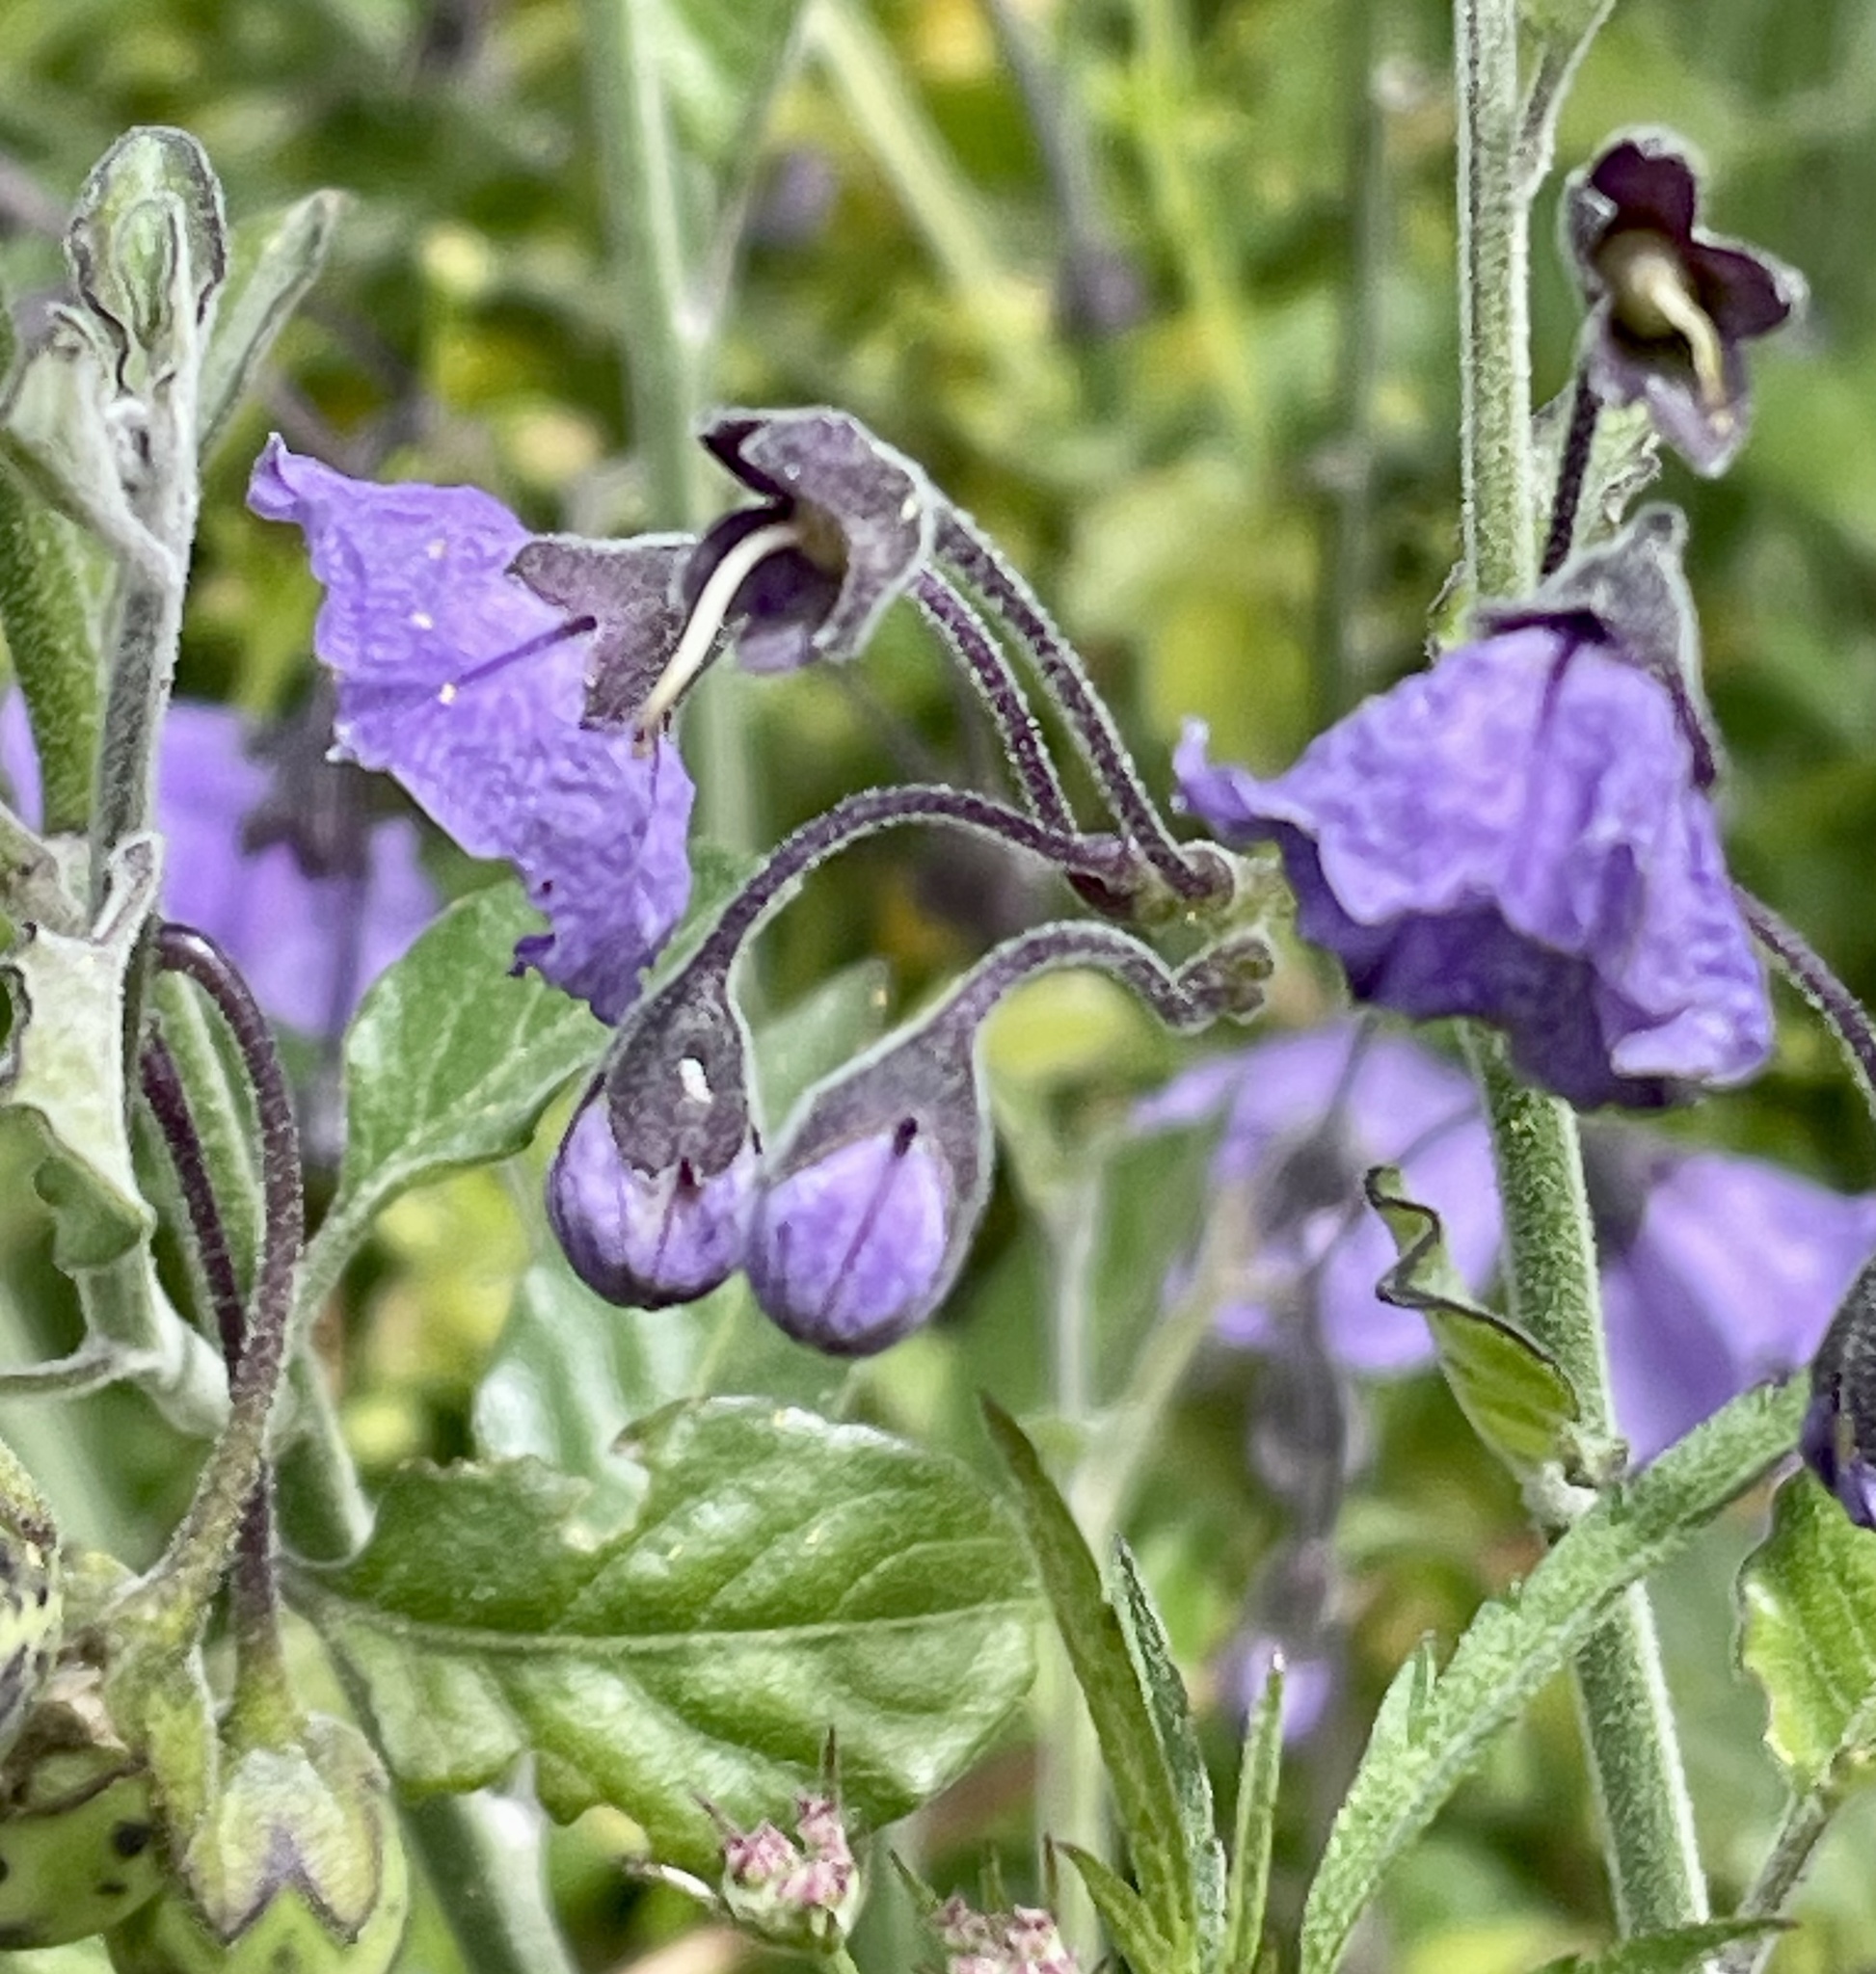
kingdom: Plantae
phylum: Tracheophyta
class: Magnoliopsida
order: Solanales
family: Solanaceae
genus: Solanum
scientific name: Solanum umbelliferum
